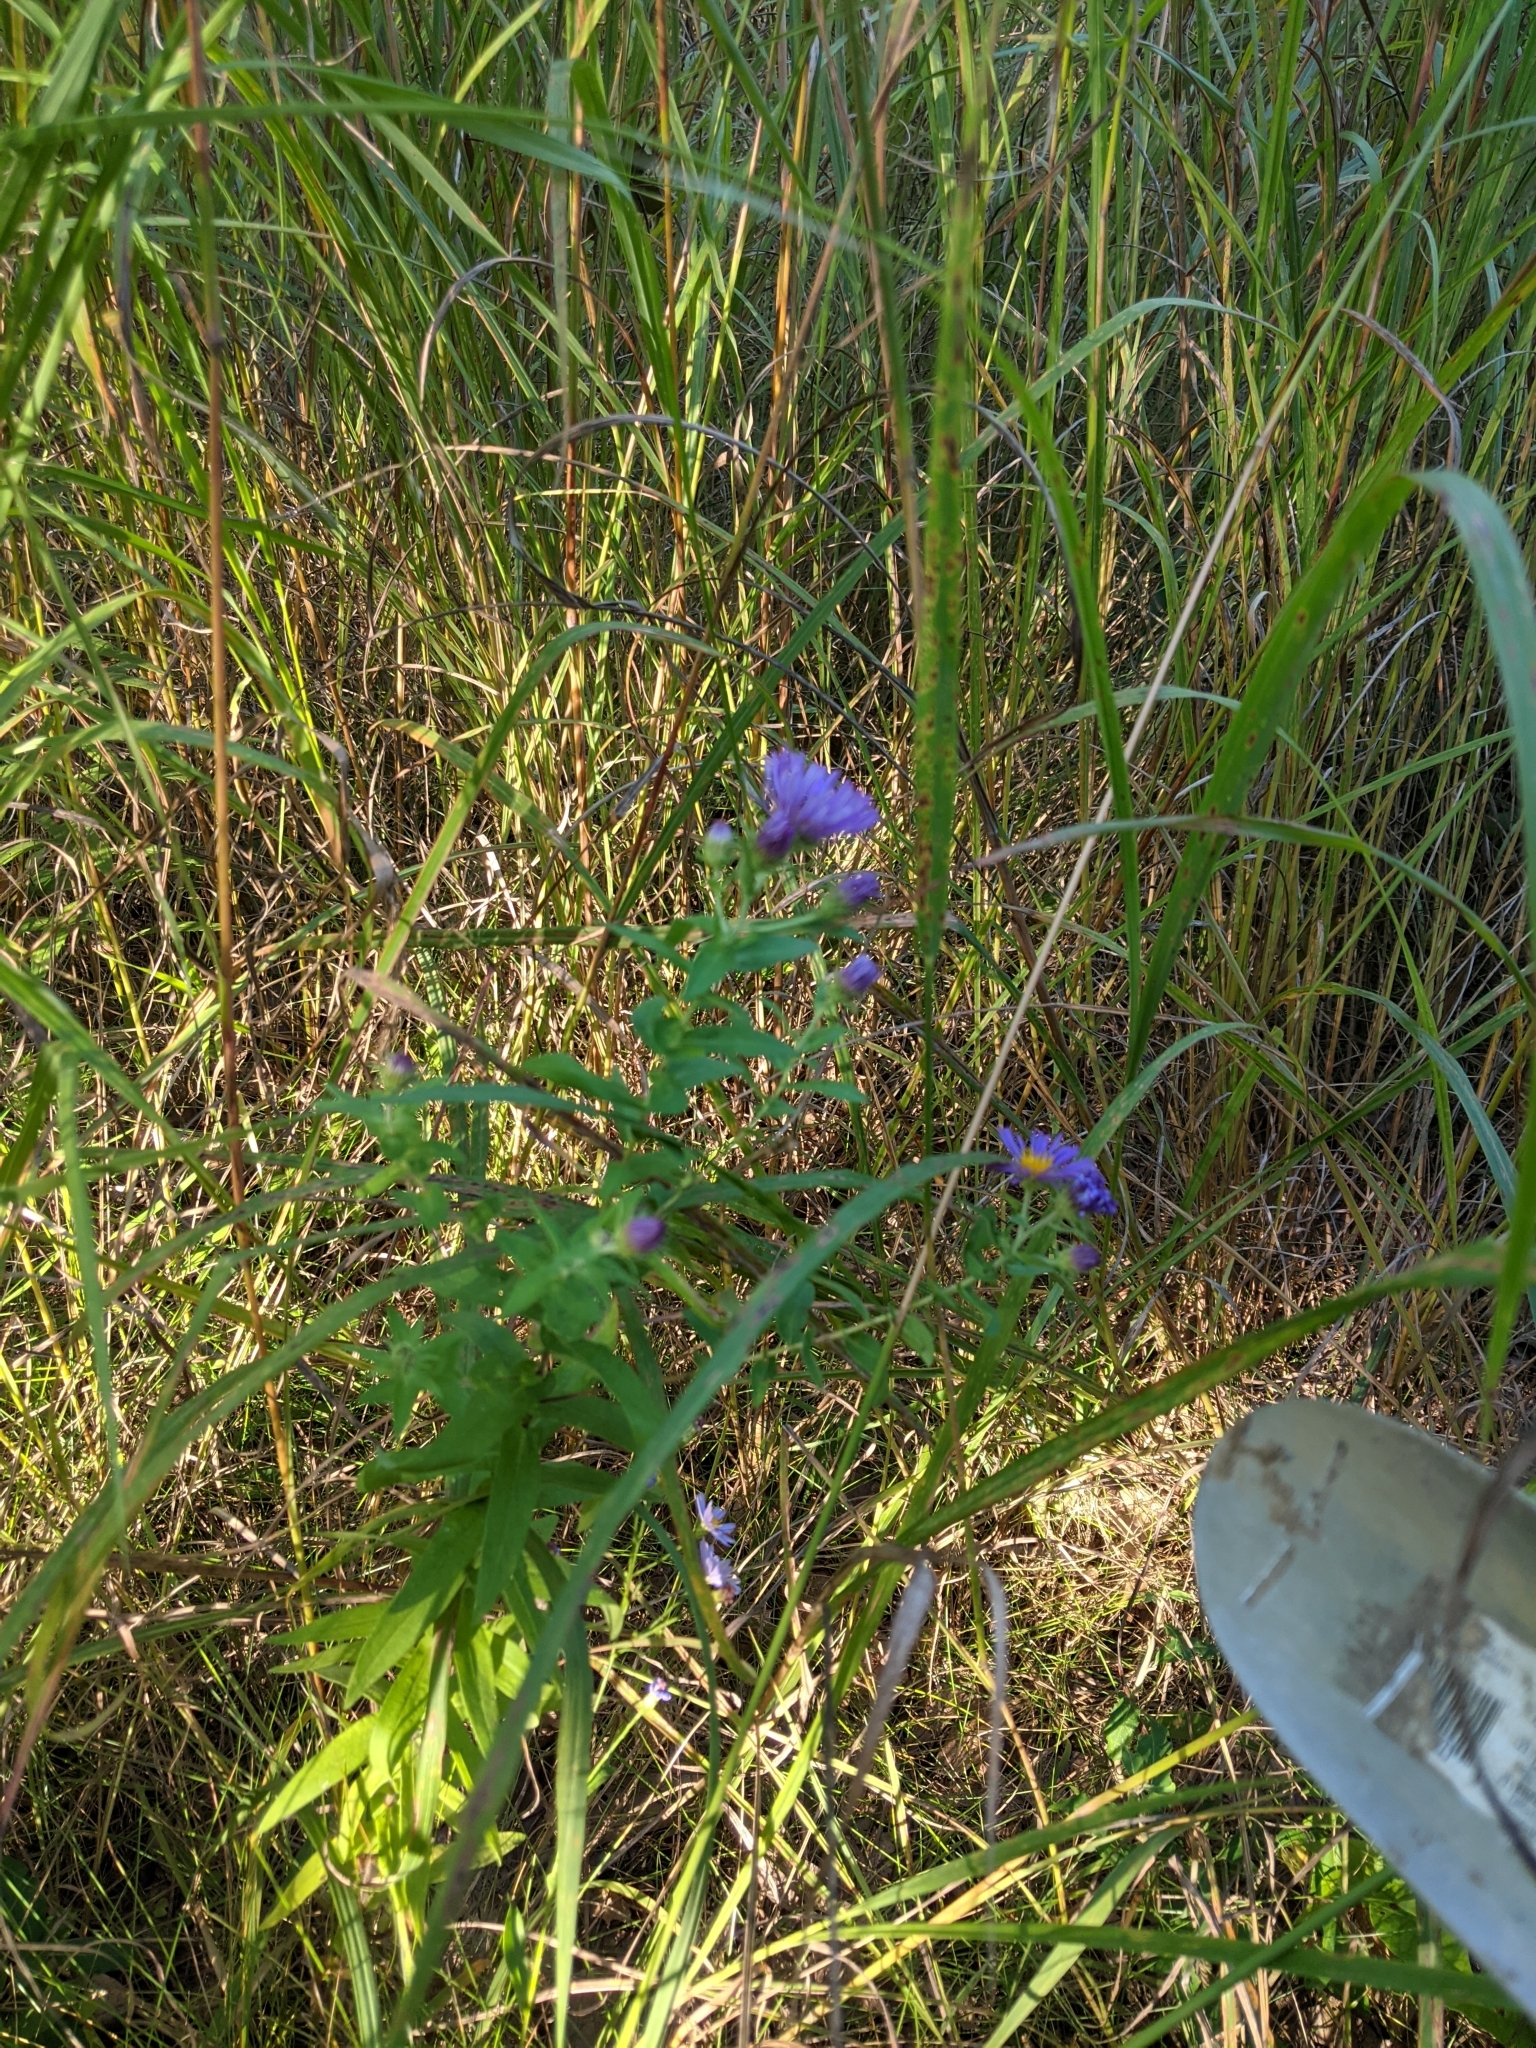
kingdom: Plantae
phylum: Tracheophyta
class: Magnoliopsida
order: Asterales
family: Asteraceae
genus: Symphyotrichum
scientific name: Symphyotrichum novae-angliae
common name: Michaelmas daisy
